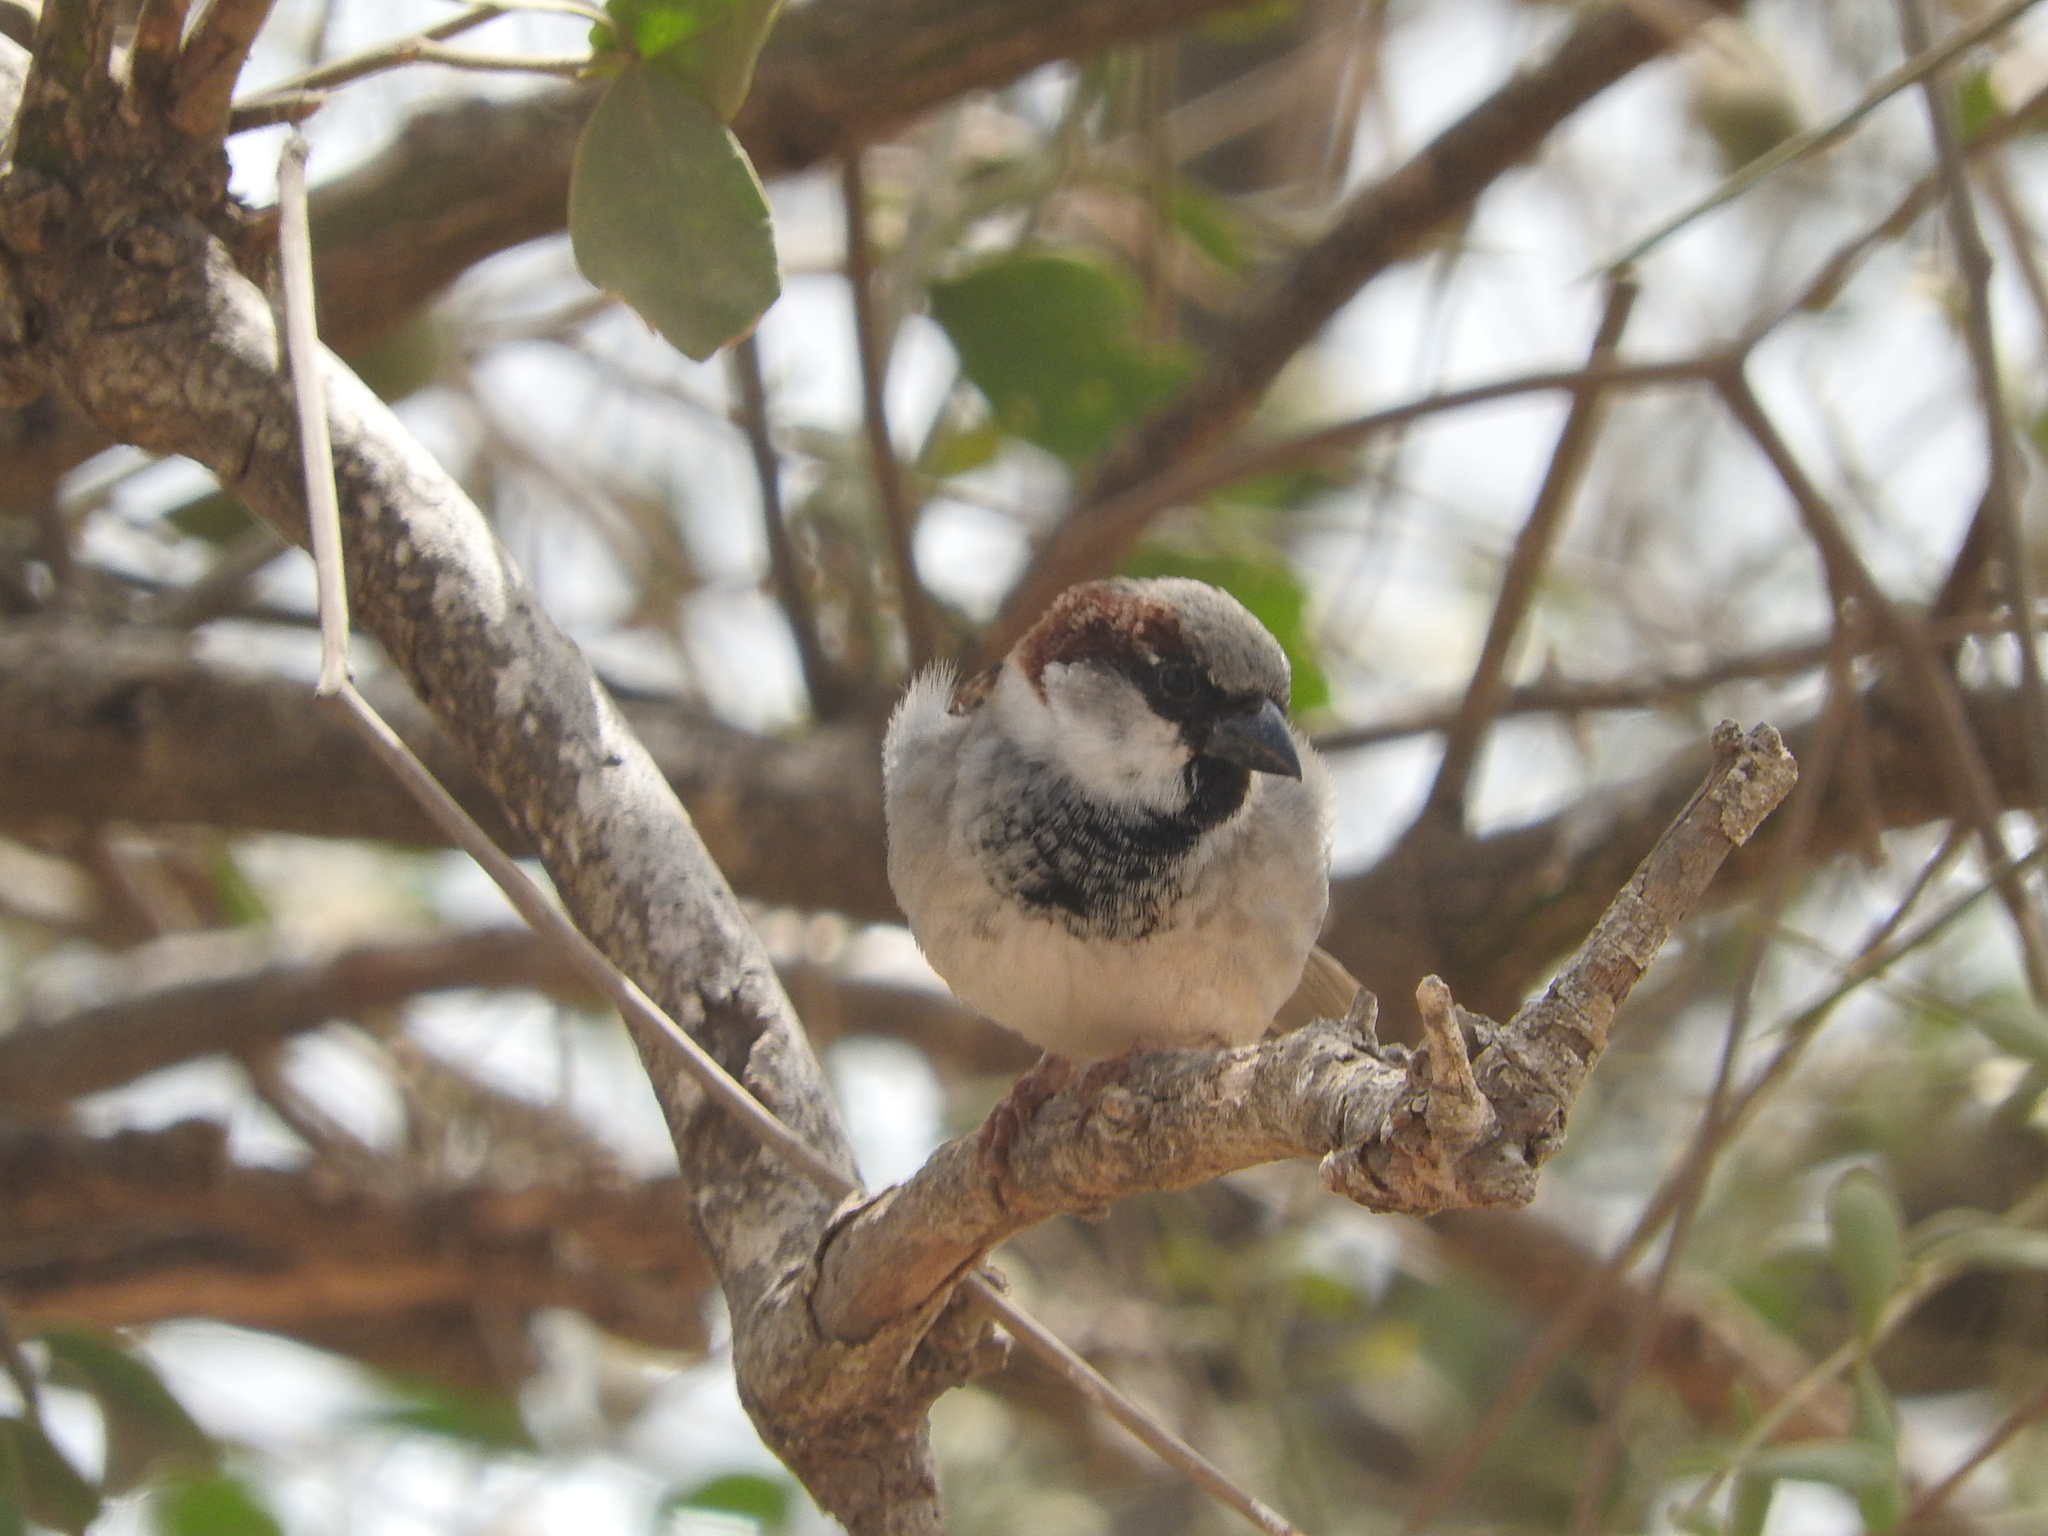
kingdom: Animalia
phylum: Chordata
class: Aves
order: Passeriformes
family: Passeridae
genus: Passer
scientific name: Passer domesticus
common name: House sparrow
